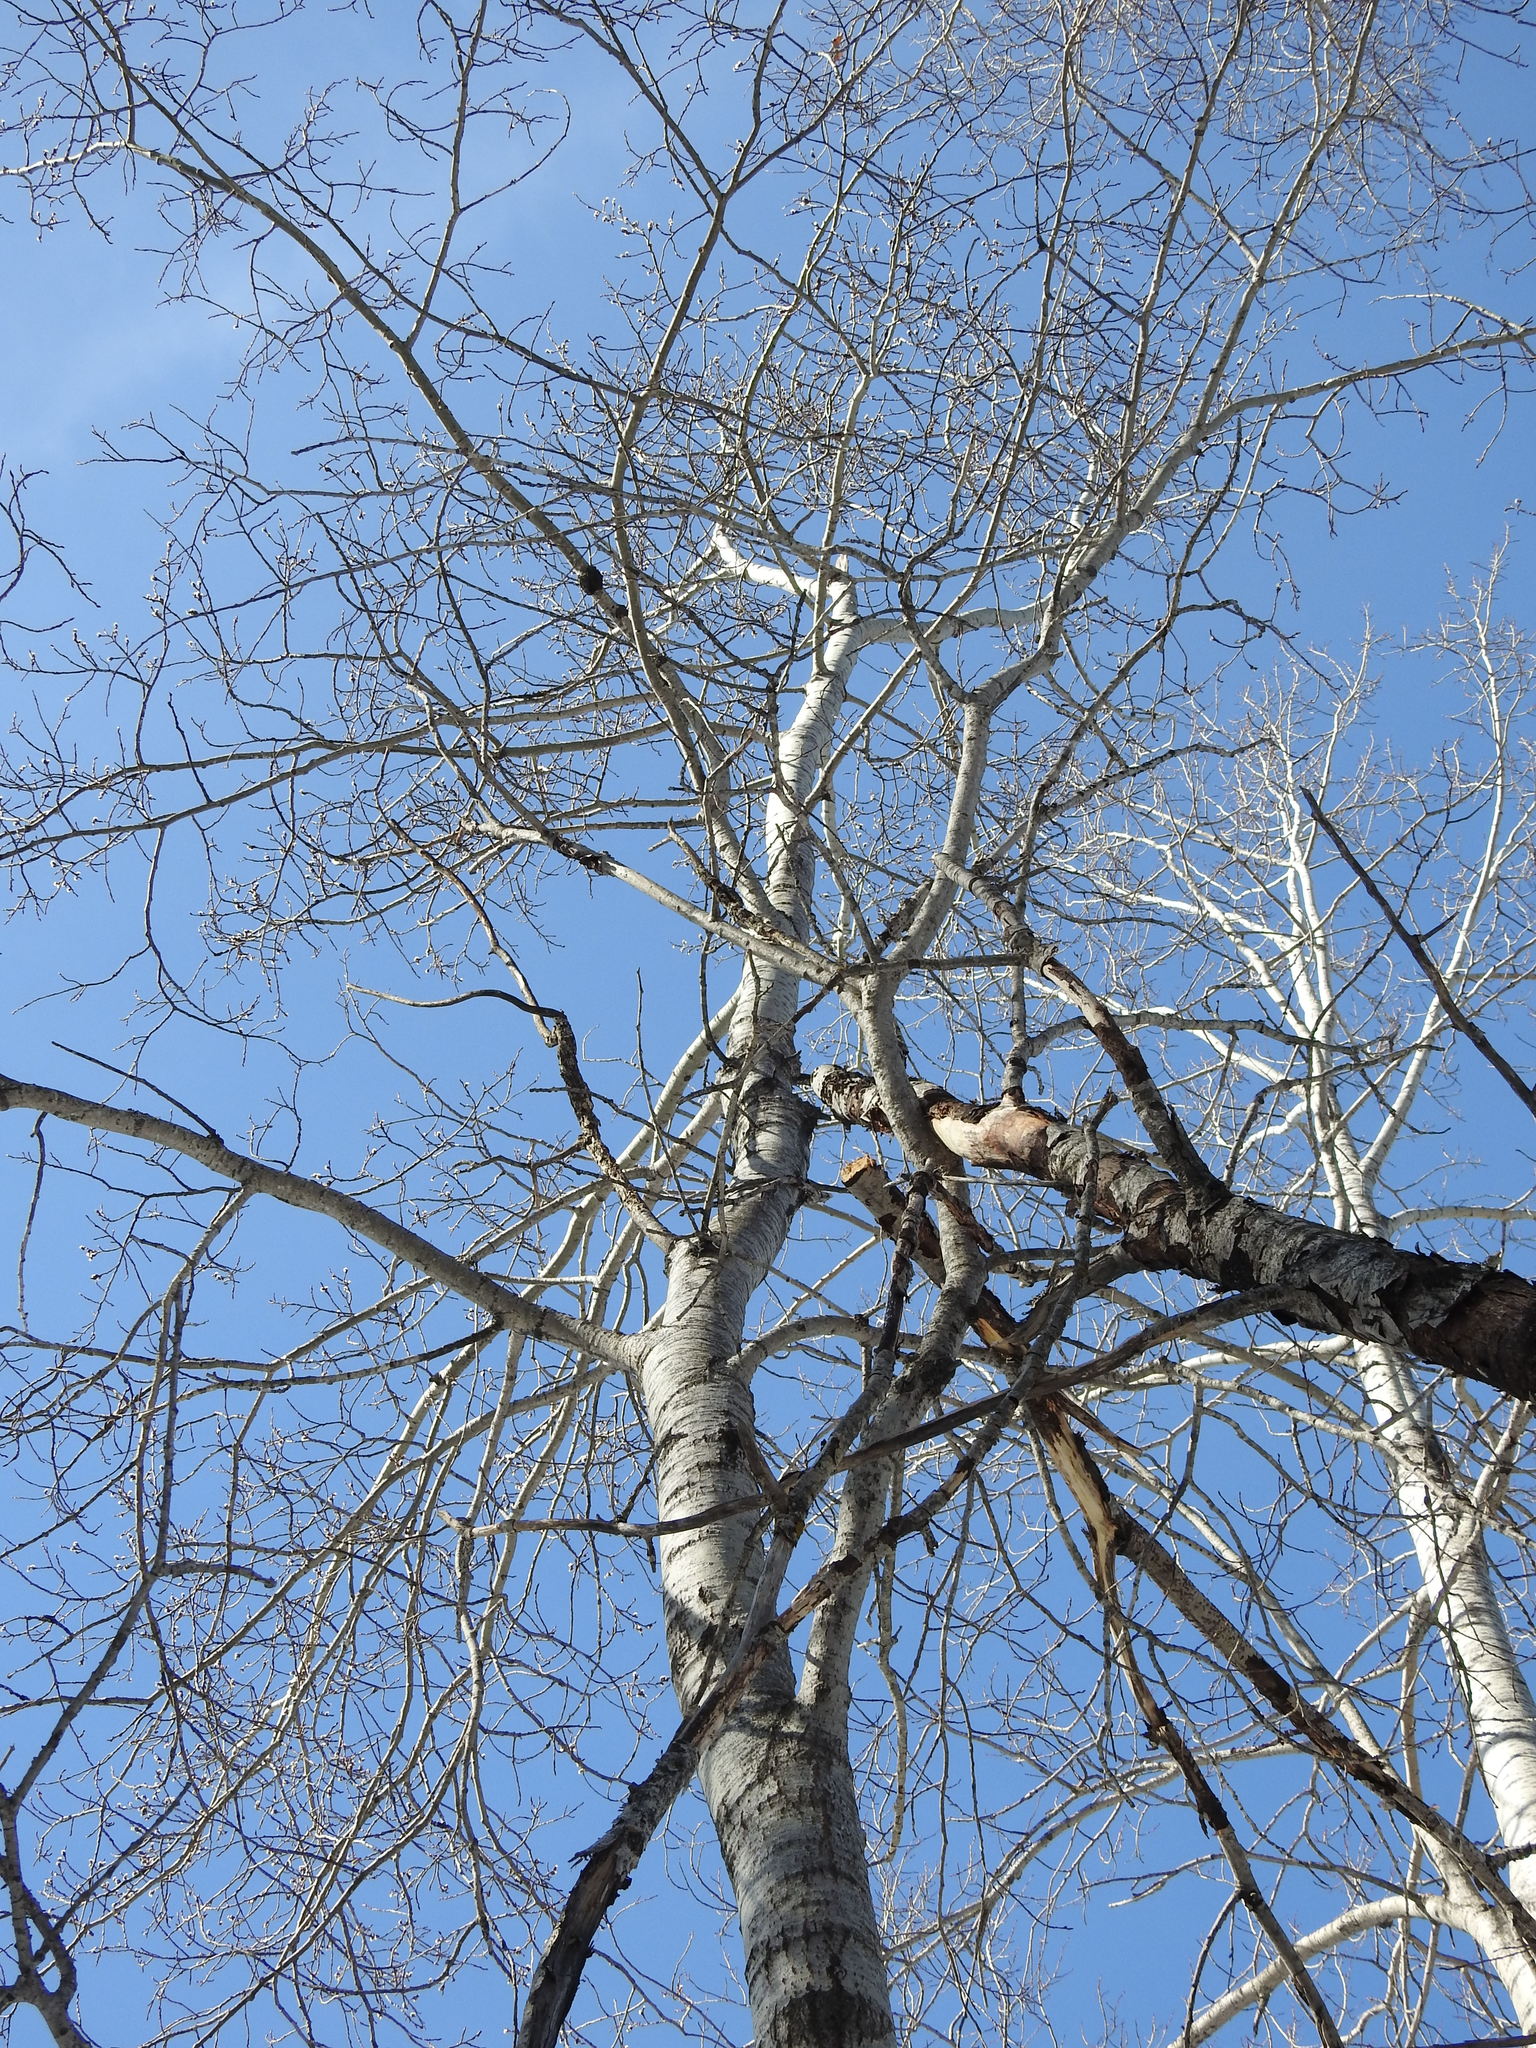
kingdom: Plantae
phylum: Tracheophyta
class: Magnoliopsida
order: Malpighiales
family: Salicaceae
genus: Populus
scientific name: Populus tremuloides
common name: Quaking aspen
